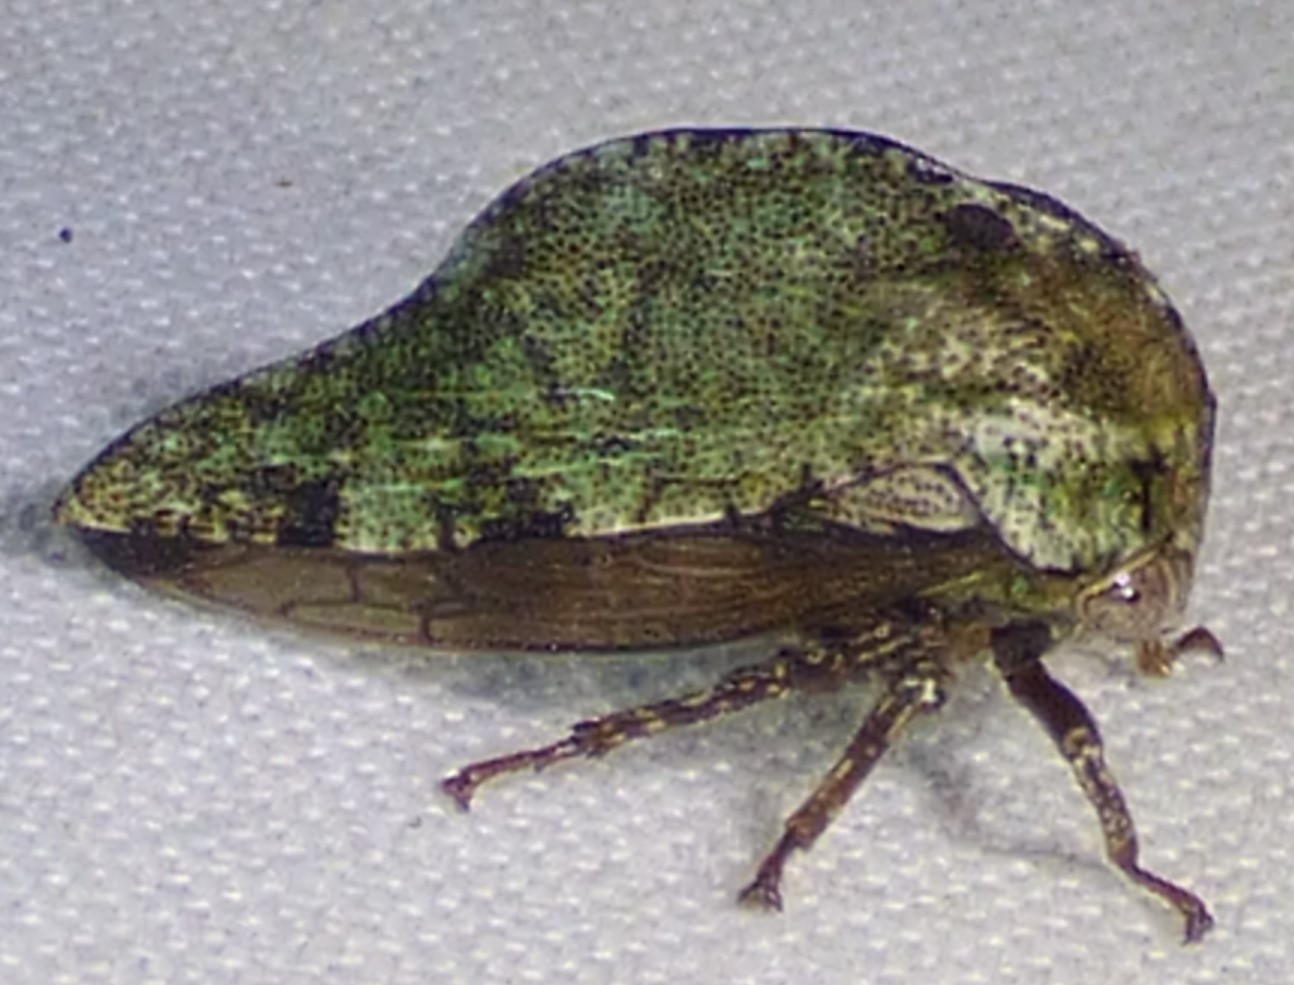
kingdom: Animalia
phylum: Arthropoda
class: Insecta
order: Hemiptera
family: Membracidae
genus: Telamona
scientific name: Telamona westcotti
